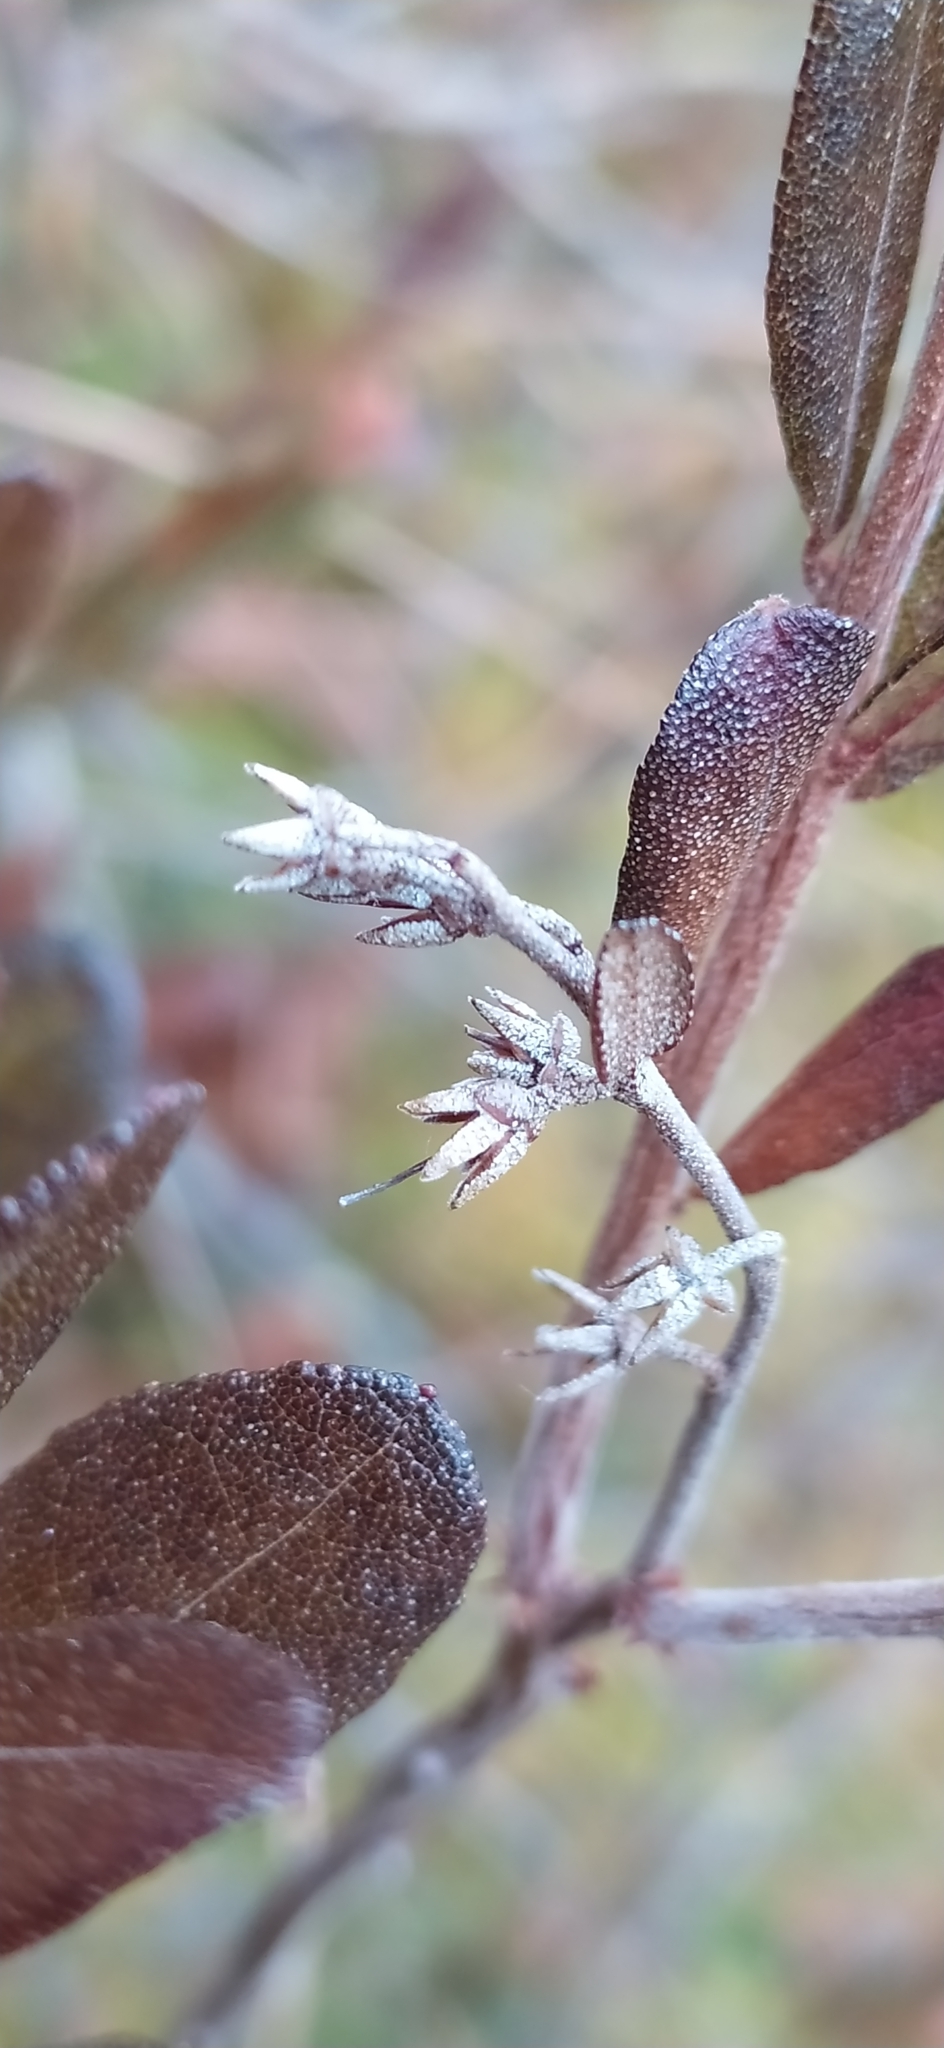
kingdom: Plantae
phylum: Tracheophyta
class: Magnoliopsida
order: Ericales
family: Ericaceae
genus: Chamaedaphne
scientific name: Chamaedaphne calyculata
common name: Leatherleaf
